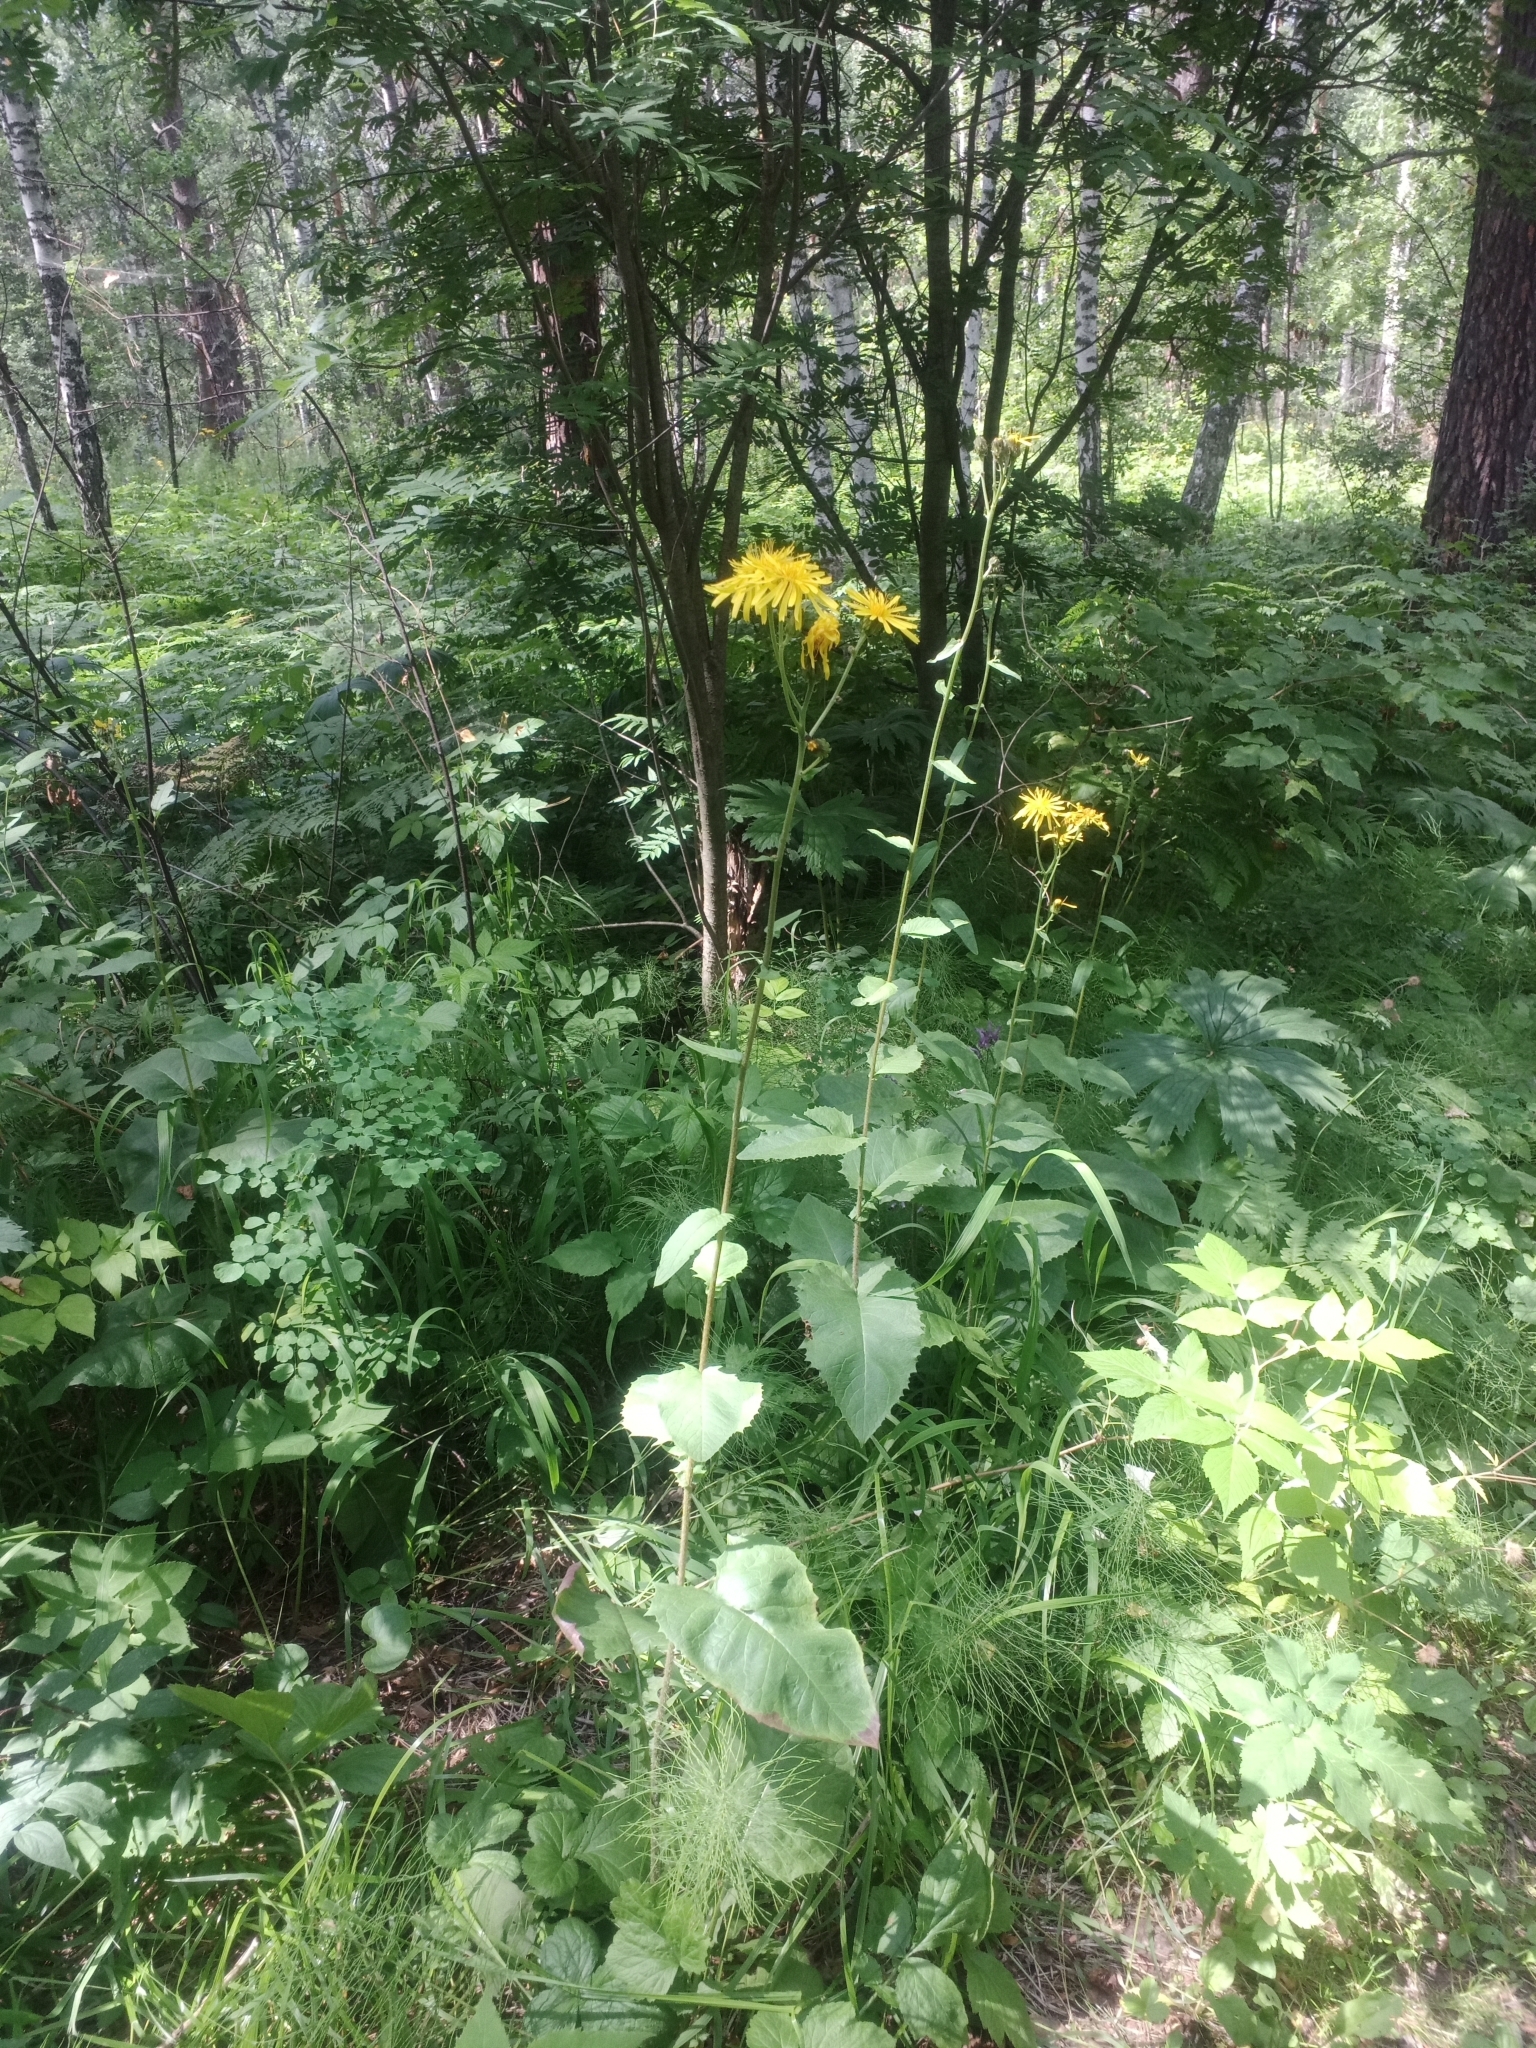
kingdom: Plantae
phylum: Tracheophyta
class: Magnoliopsida
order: Asterales
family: Asteraceae
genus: Crepis
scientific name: Crepis sibirica
